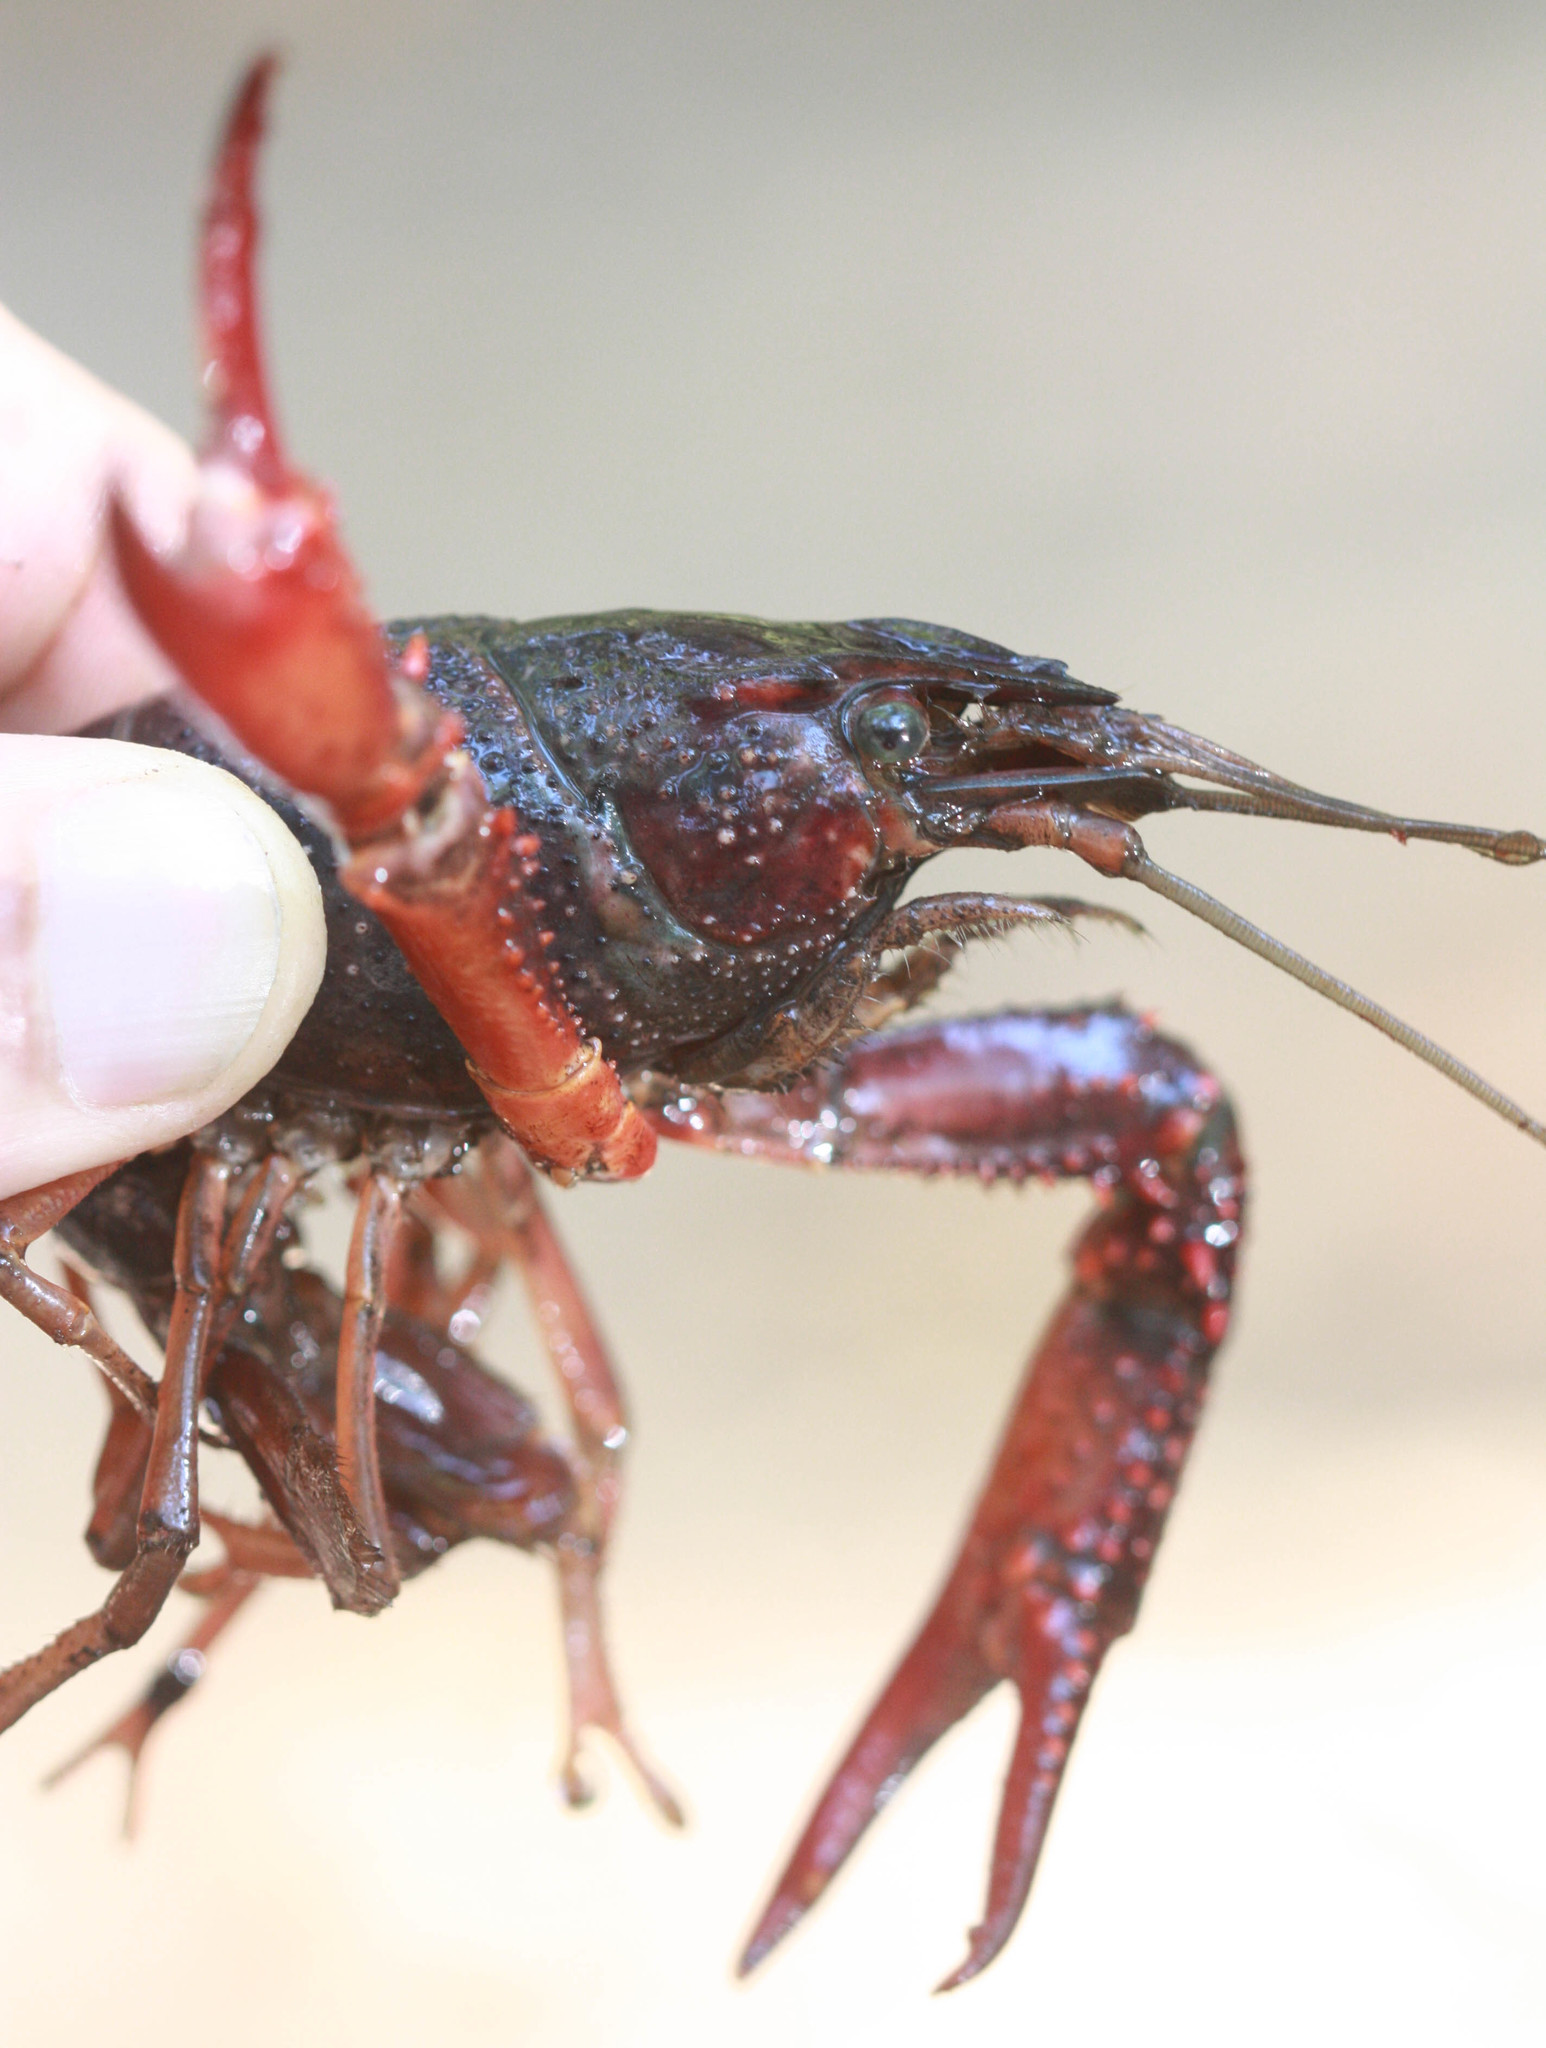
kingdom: Animalia
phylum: Arthropoda
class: Malacostraca
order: Decapoda
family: Cambaridae
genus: Procambarus
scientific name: Procambarus clarkii
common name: Red swamp crayfish
